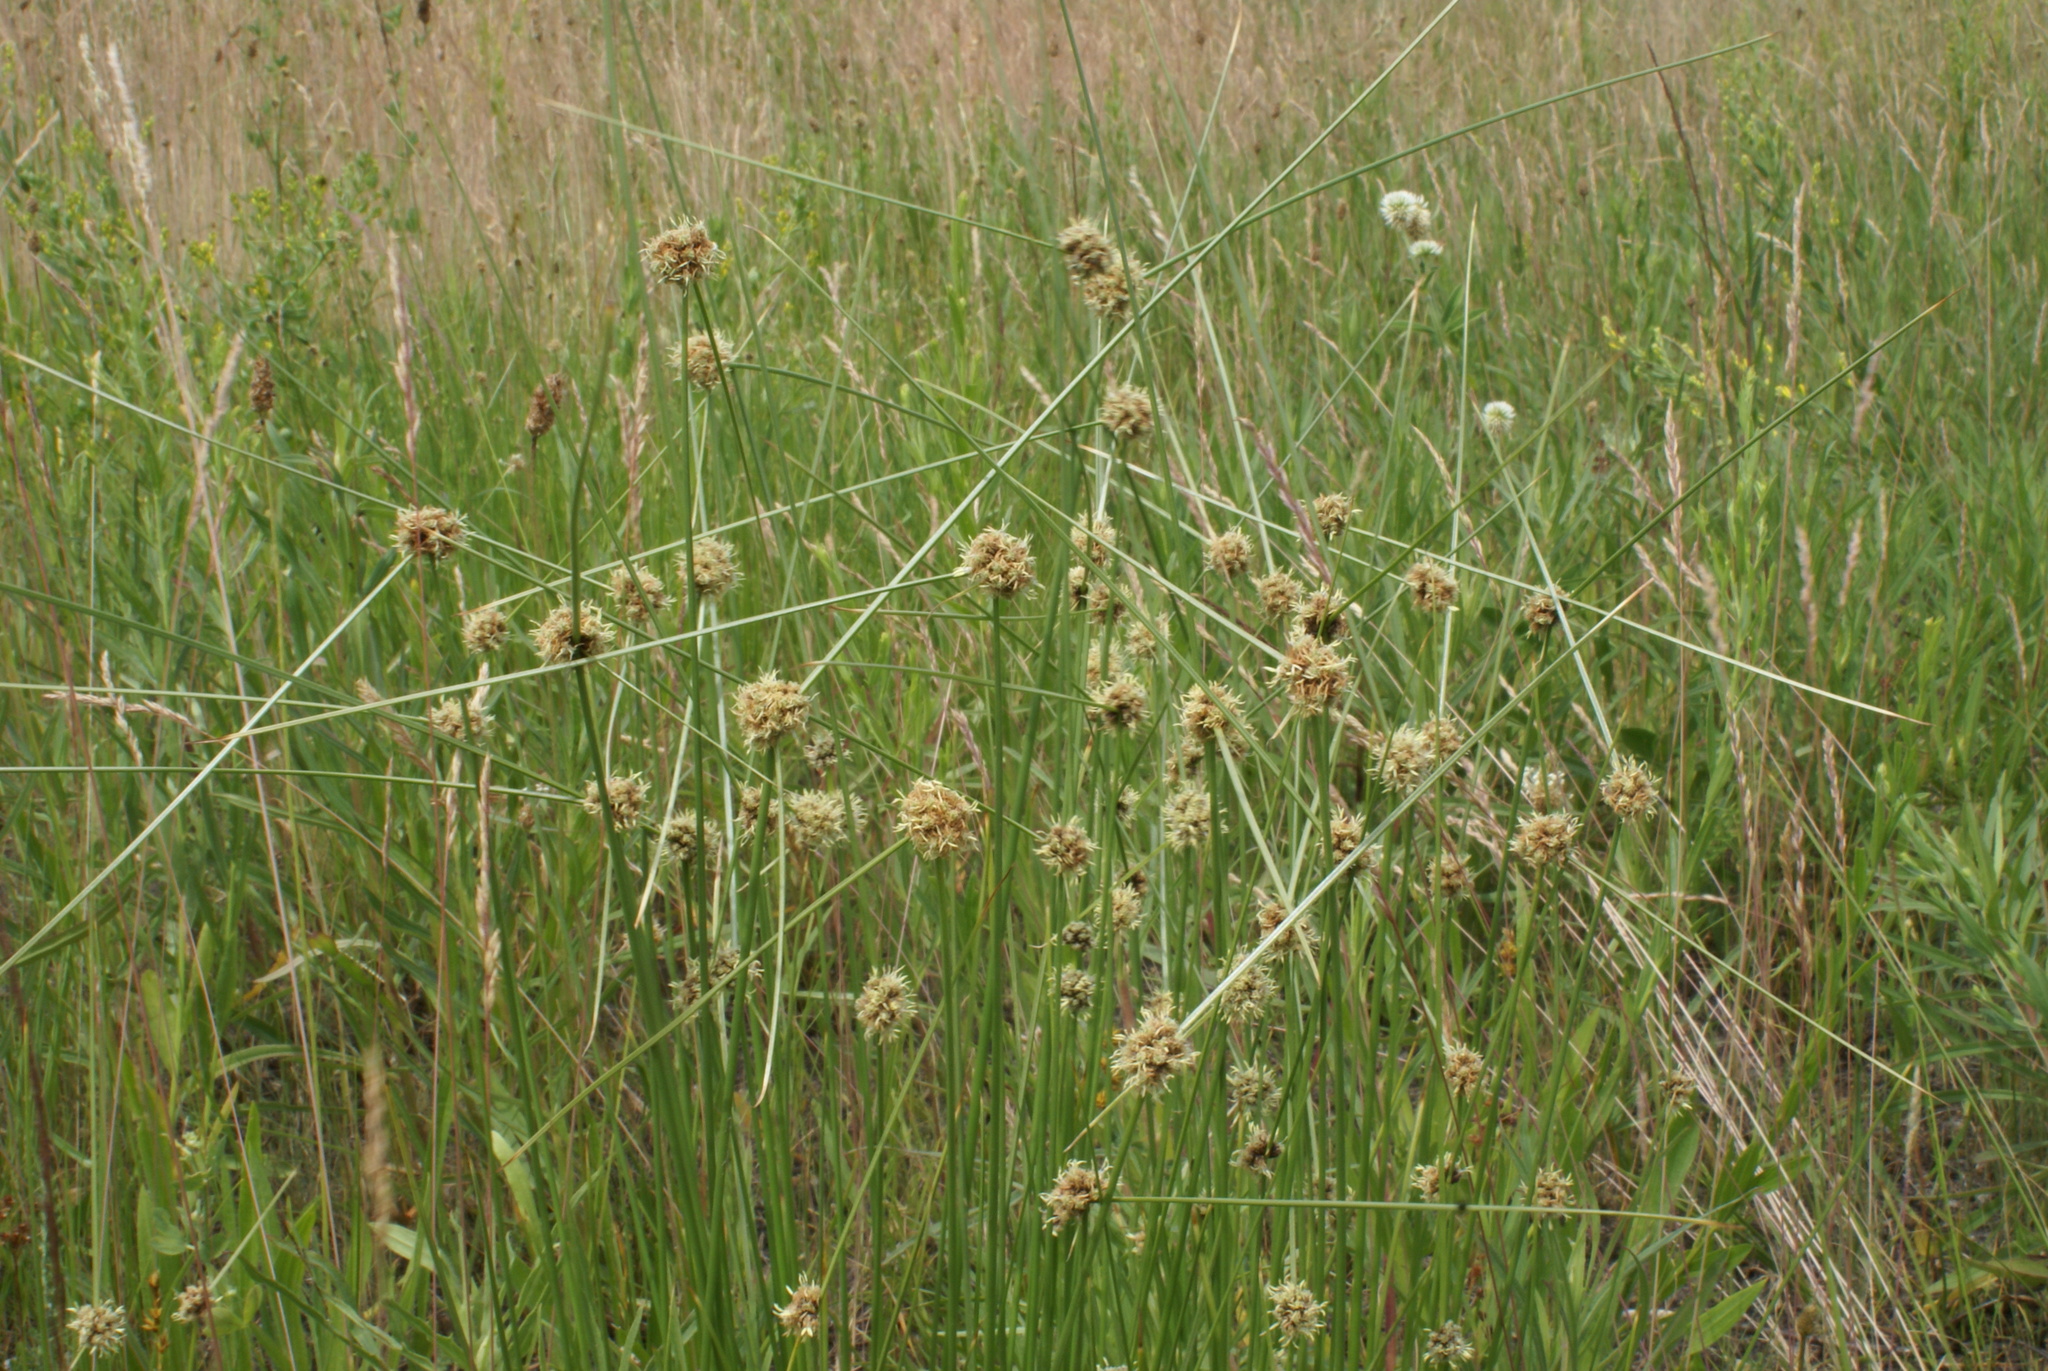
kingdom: Plantae
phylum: Tracheophyta
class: Liliopsida
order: Poales
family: Cyperaceae
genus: Scirpoides
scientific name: Scirpoides holoschoenus
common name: Round-headed club-rush
